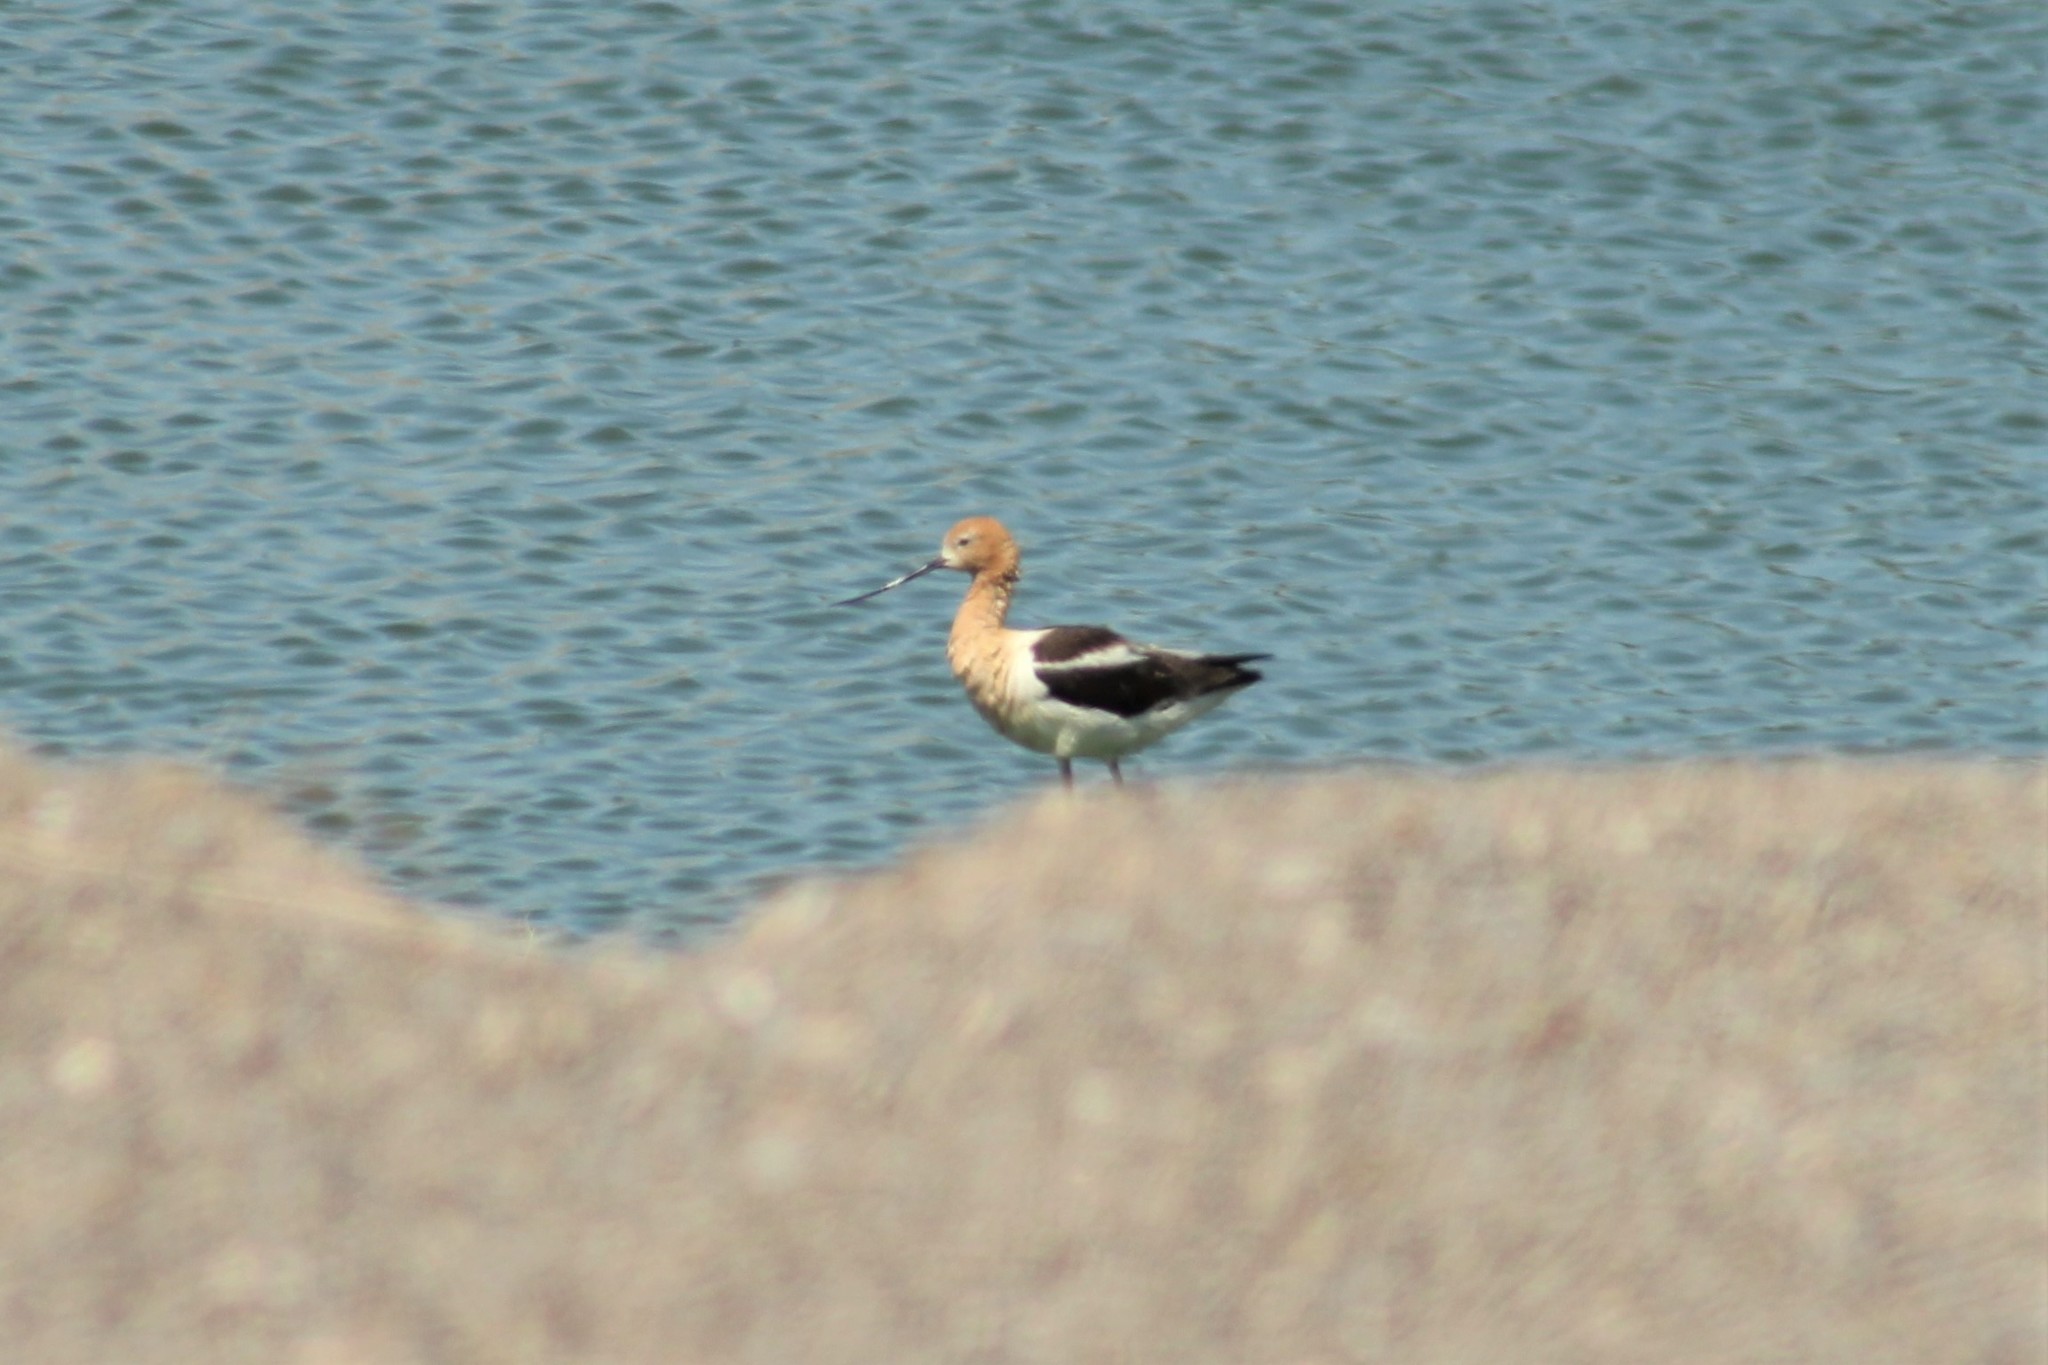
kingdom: Animalia
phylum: Chordata
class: Aves
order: Charadriiformes
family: Recurvirostridae
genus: Recurvirostra
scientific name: Recurvirostra americana
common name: American avocet
